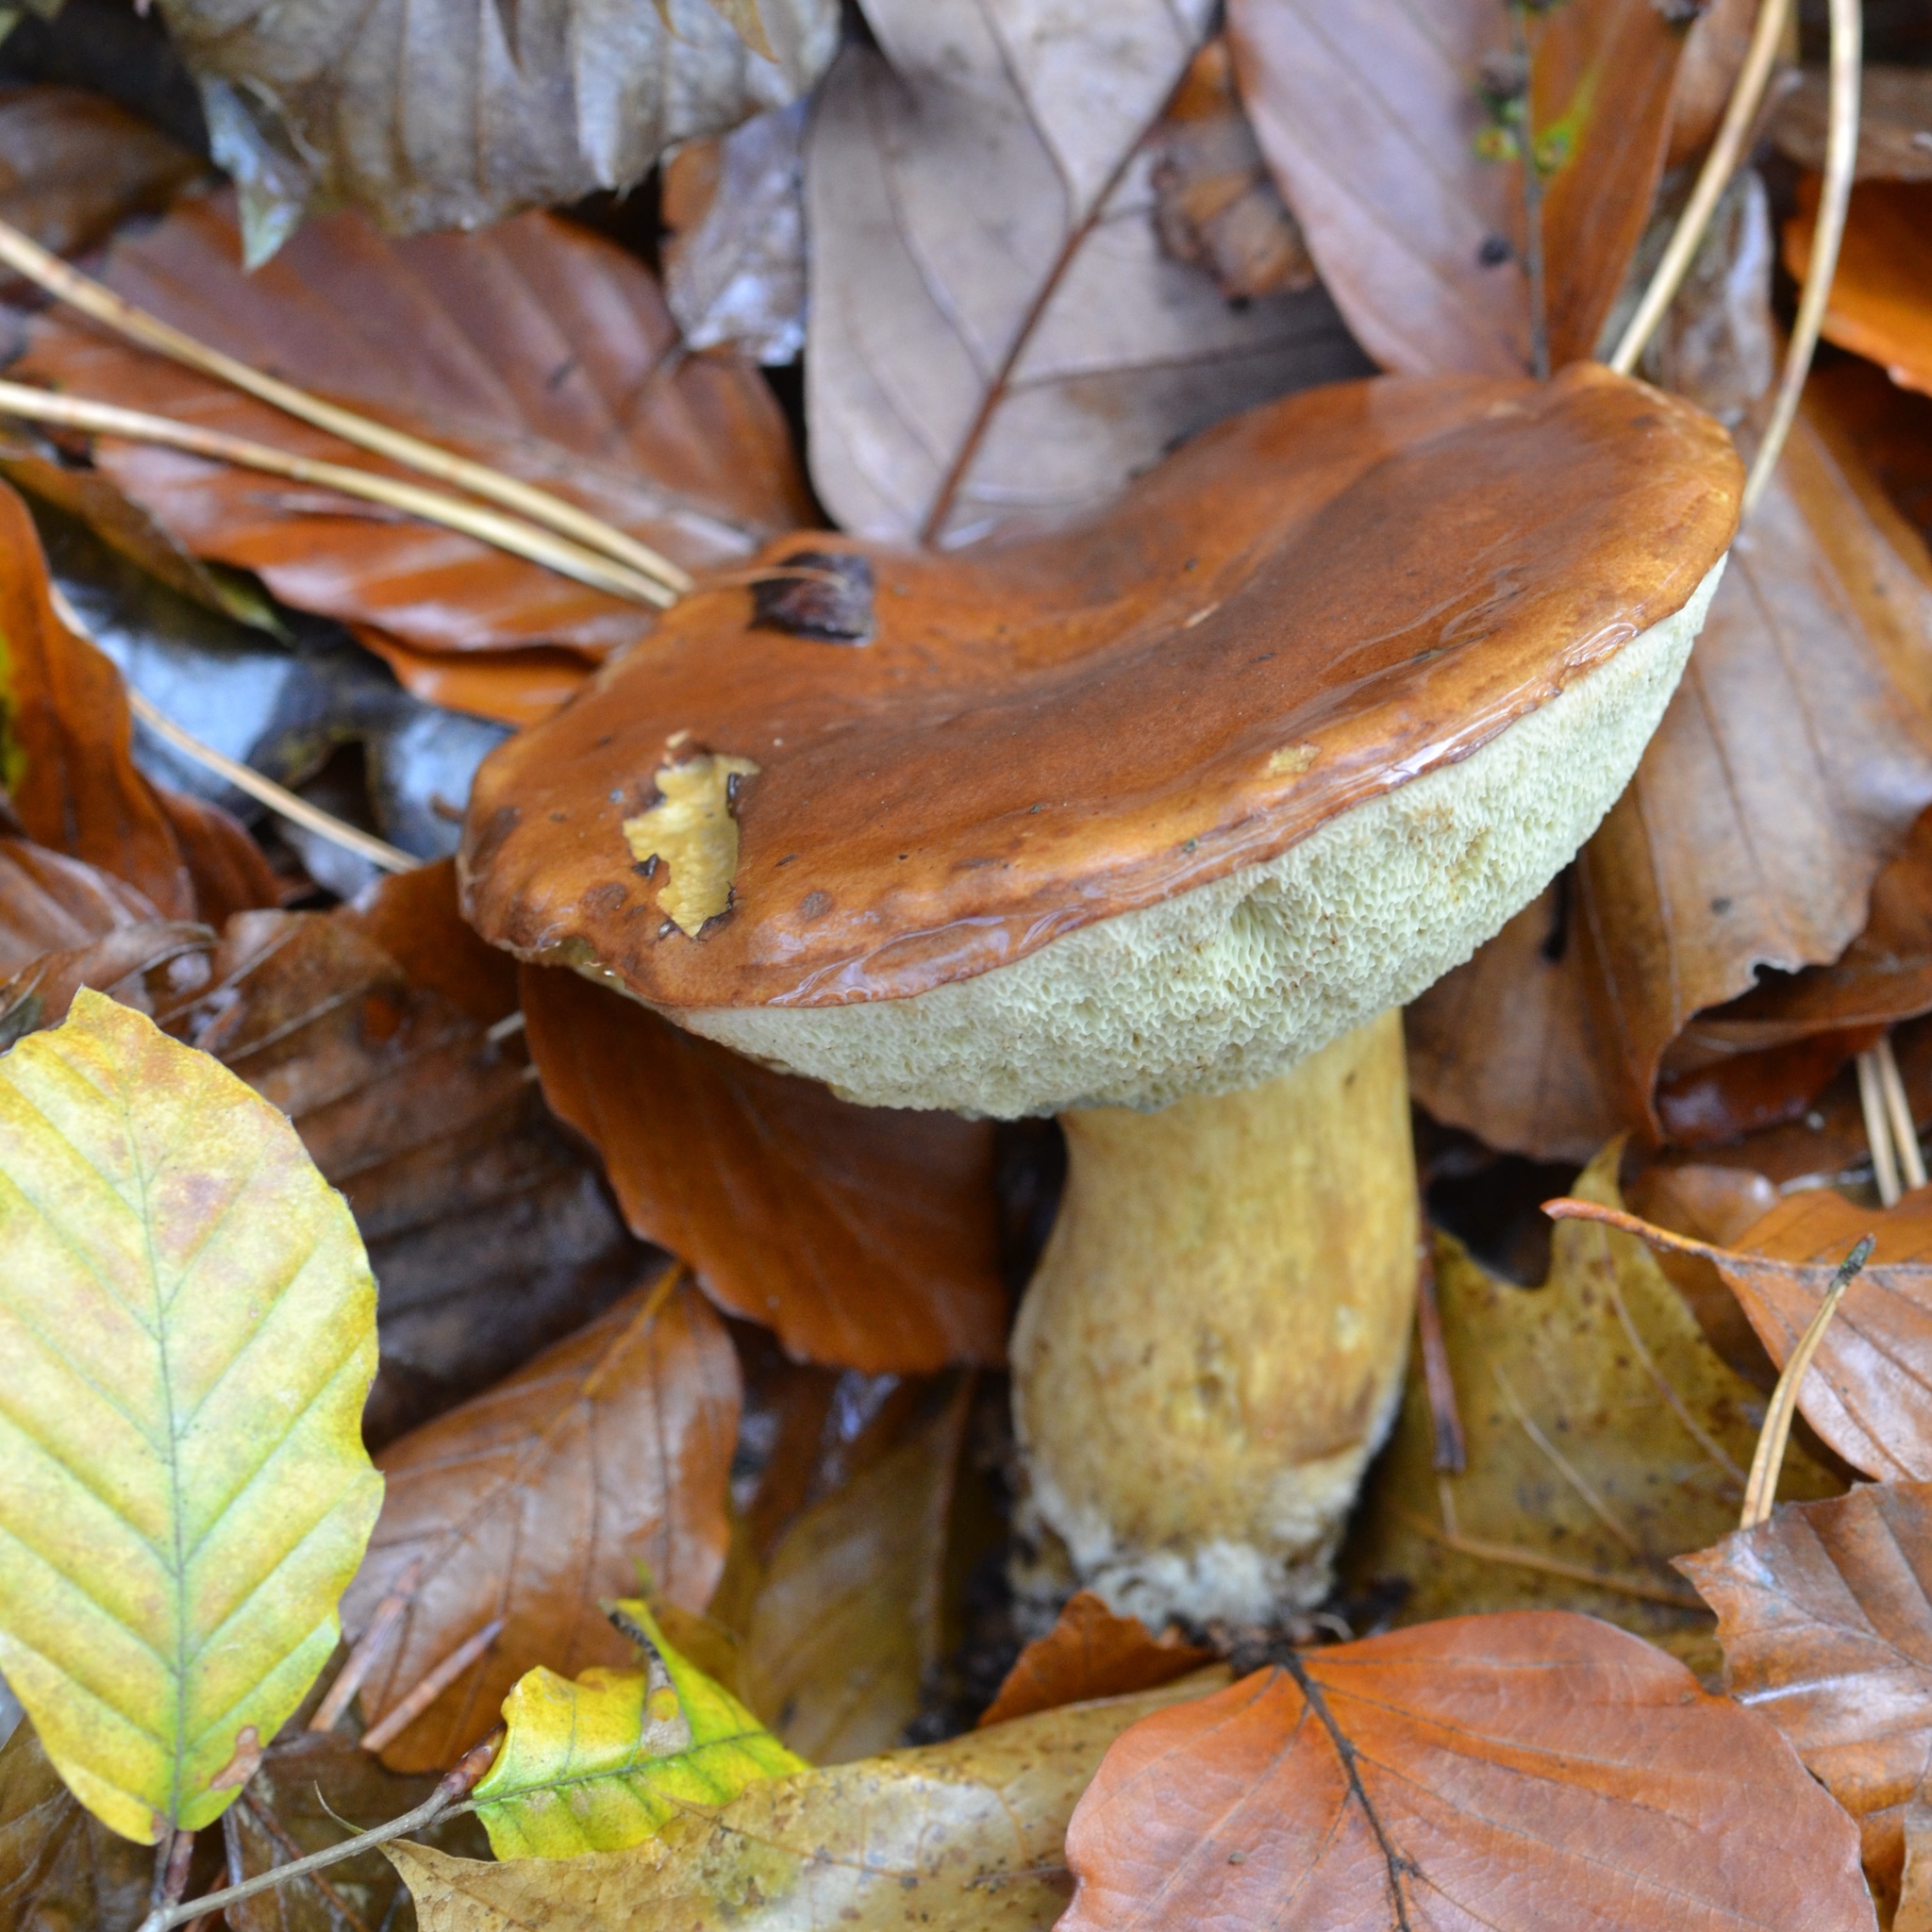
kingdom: Fungi
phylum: Basidiomycota
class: Agaricomycetes
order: Boletales
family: Boletaceae
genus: Imleria
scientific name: Imleria badia
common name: Bay bolete
